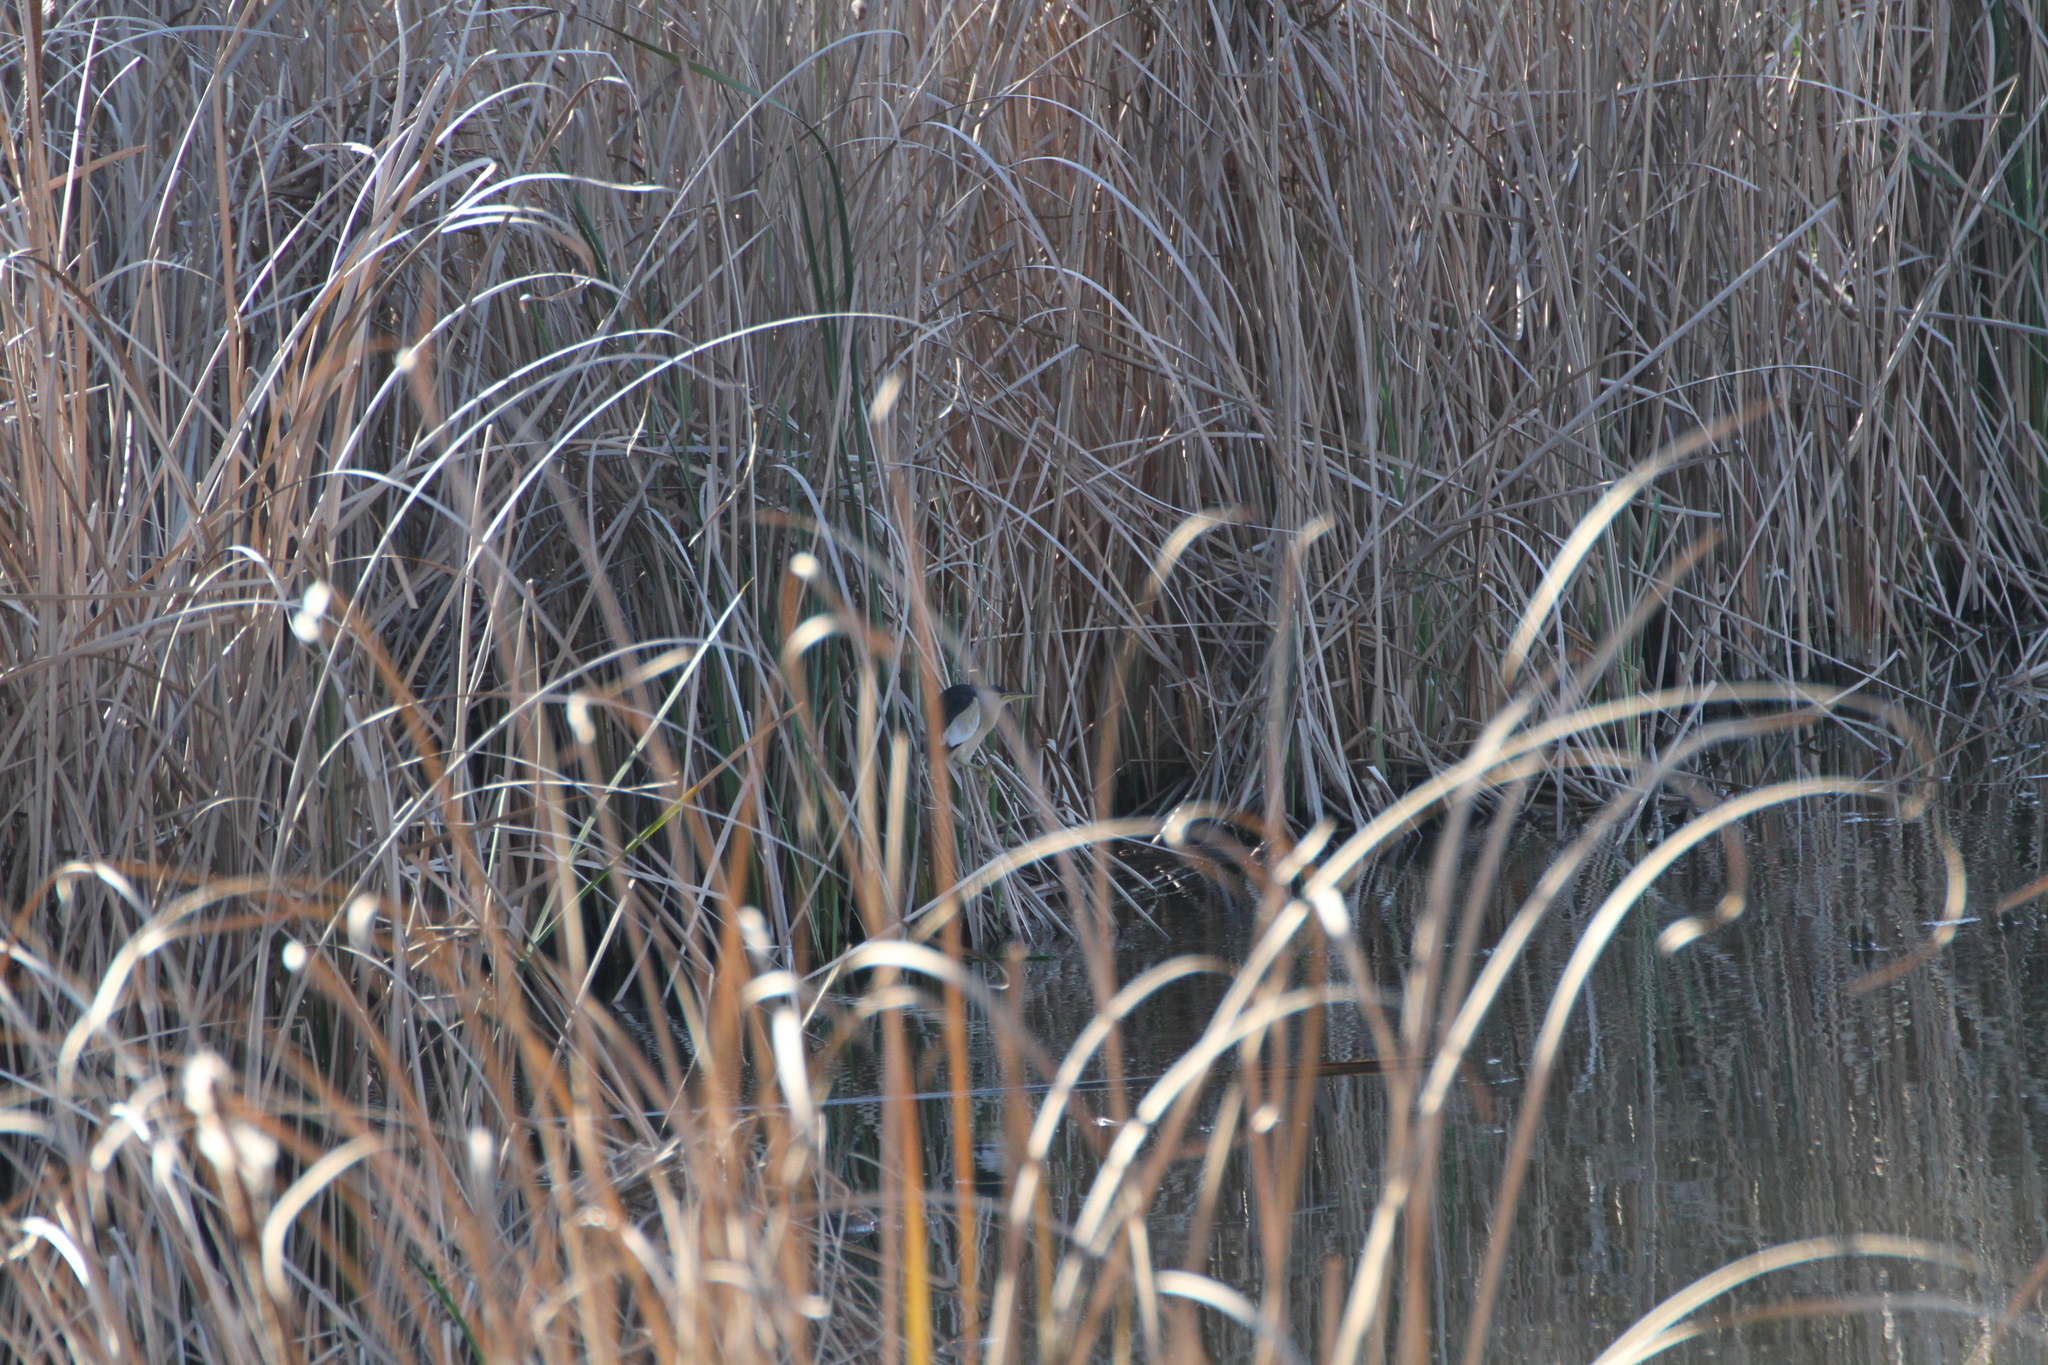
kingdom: Animalia
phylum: Chordata
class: Aves
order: Pelecaniformes
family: Ardeidae
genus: Ixobrychus
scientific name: Ixobrychus minutus
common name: Little bittern
